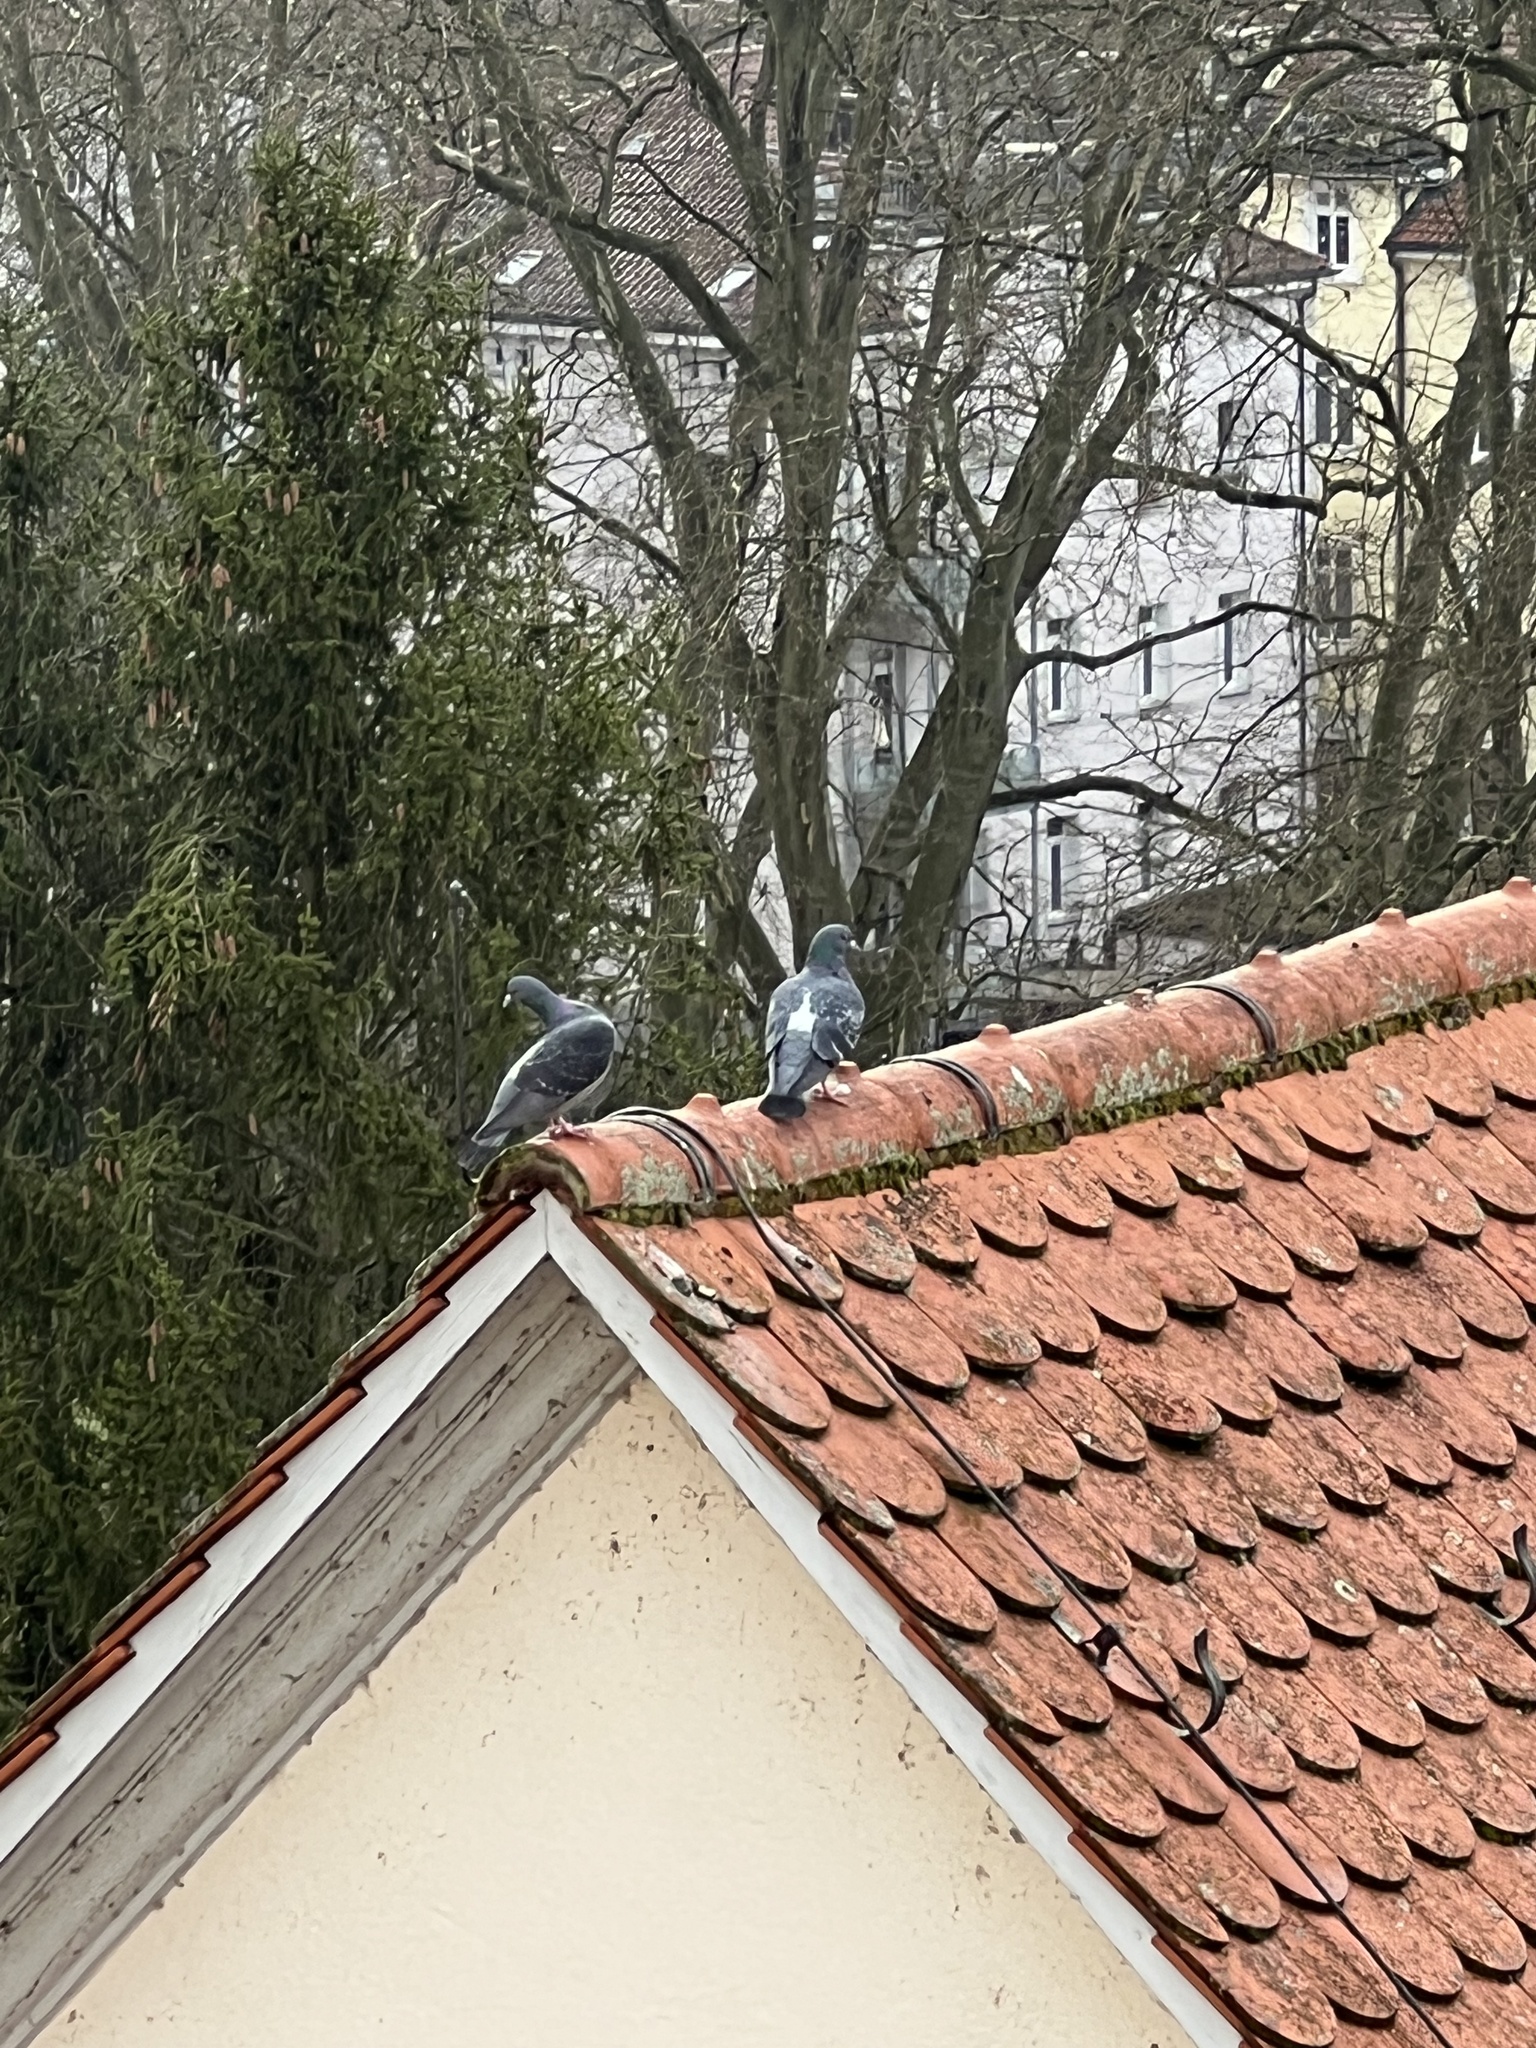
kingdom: Animalia
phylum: Chordata
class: Aves
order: Columbiformes
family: Columbidae
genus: Columba
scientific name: Columba livia
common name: Rock pigeon
